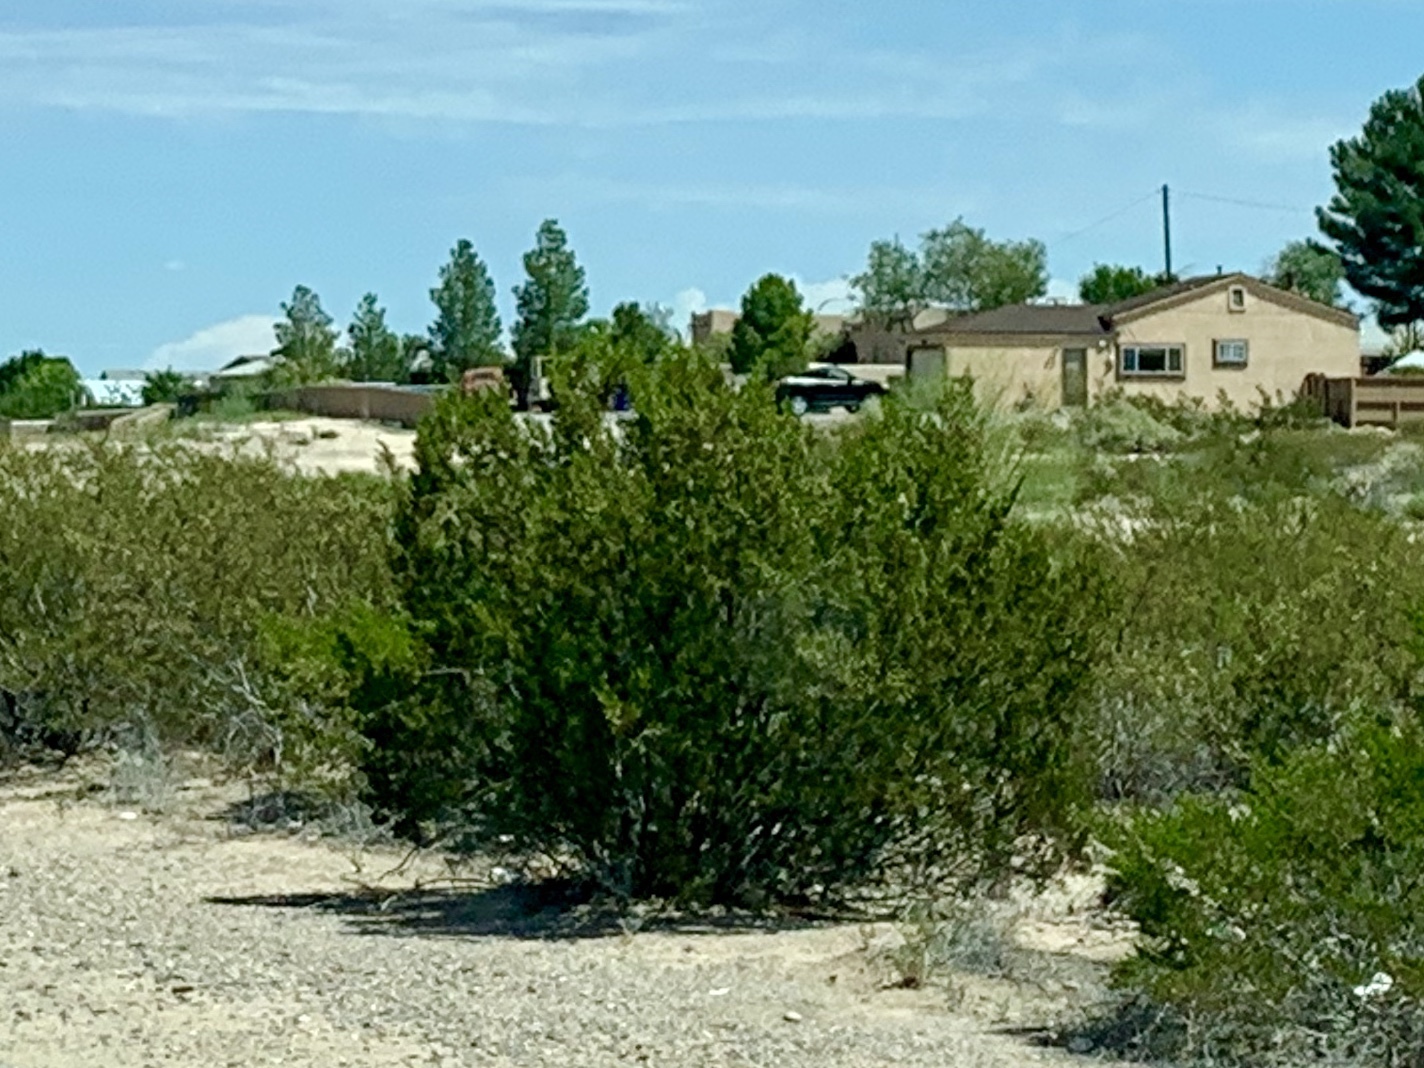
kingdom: Plantae
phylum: Tracheophyta
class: Magnoliopsida
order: Zygophyllales
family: Zygophyllaceae
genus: Larrea
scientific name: Larrea tridentata
